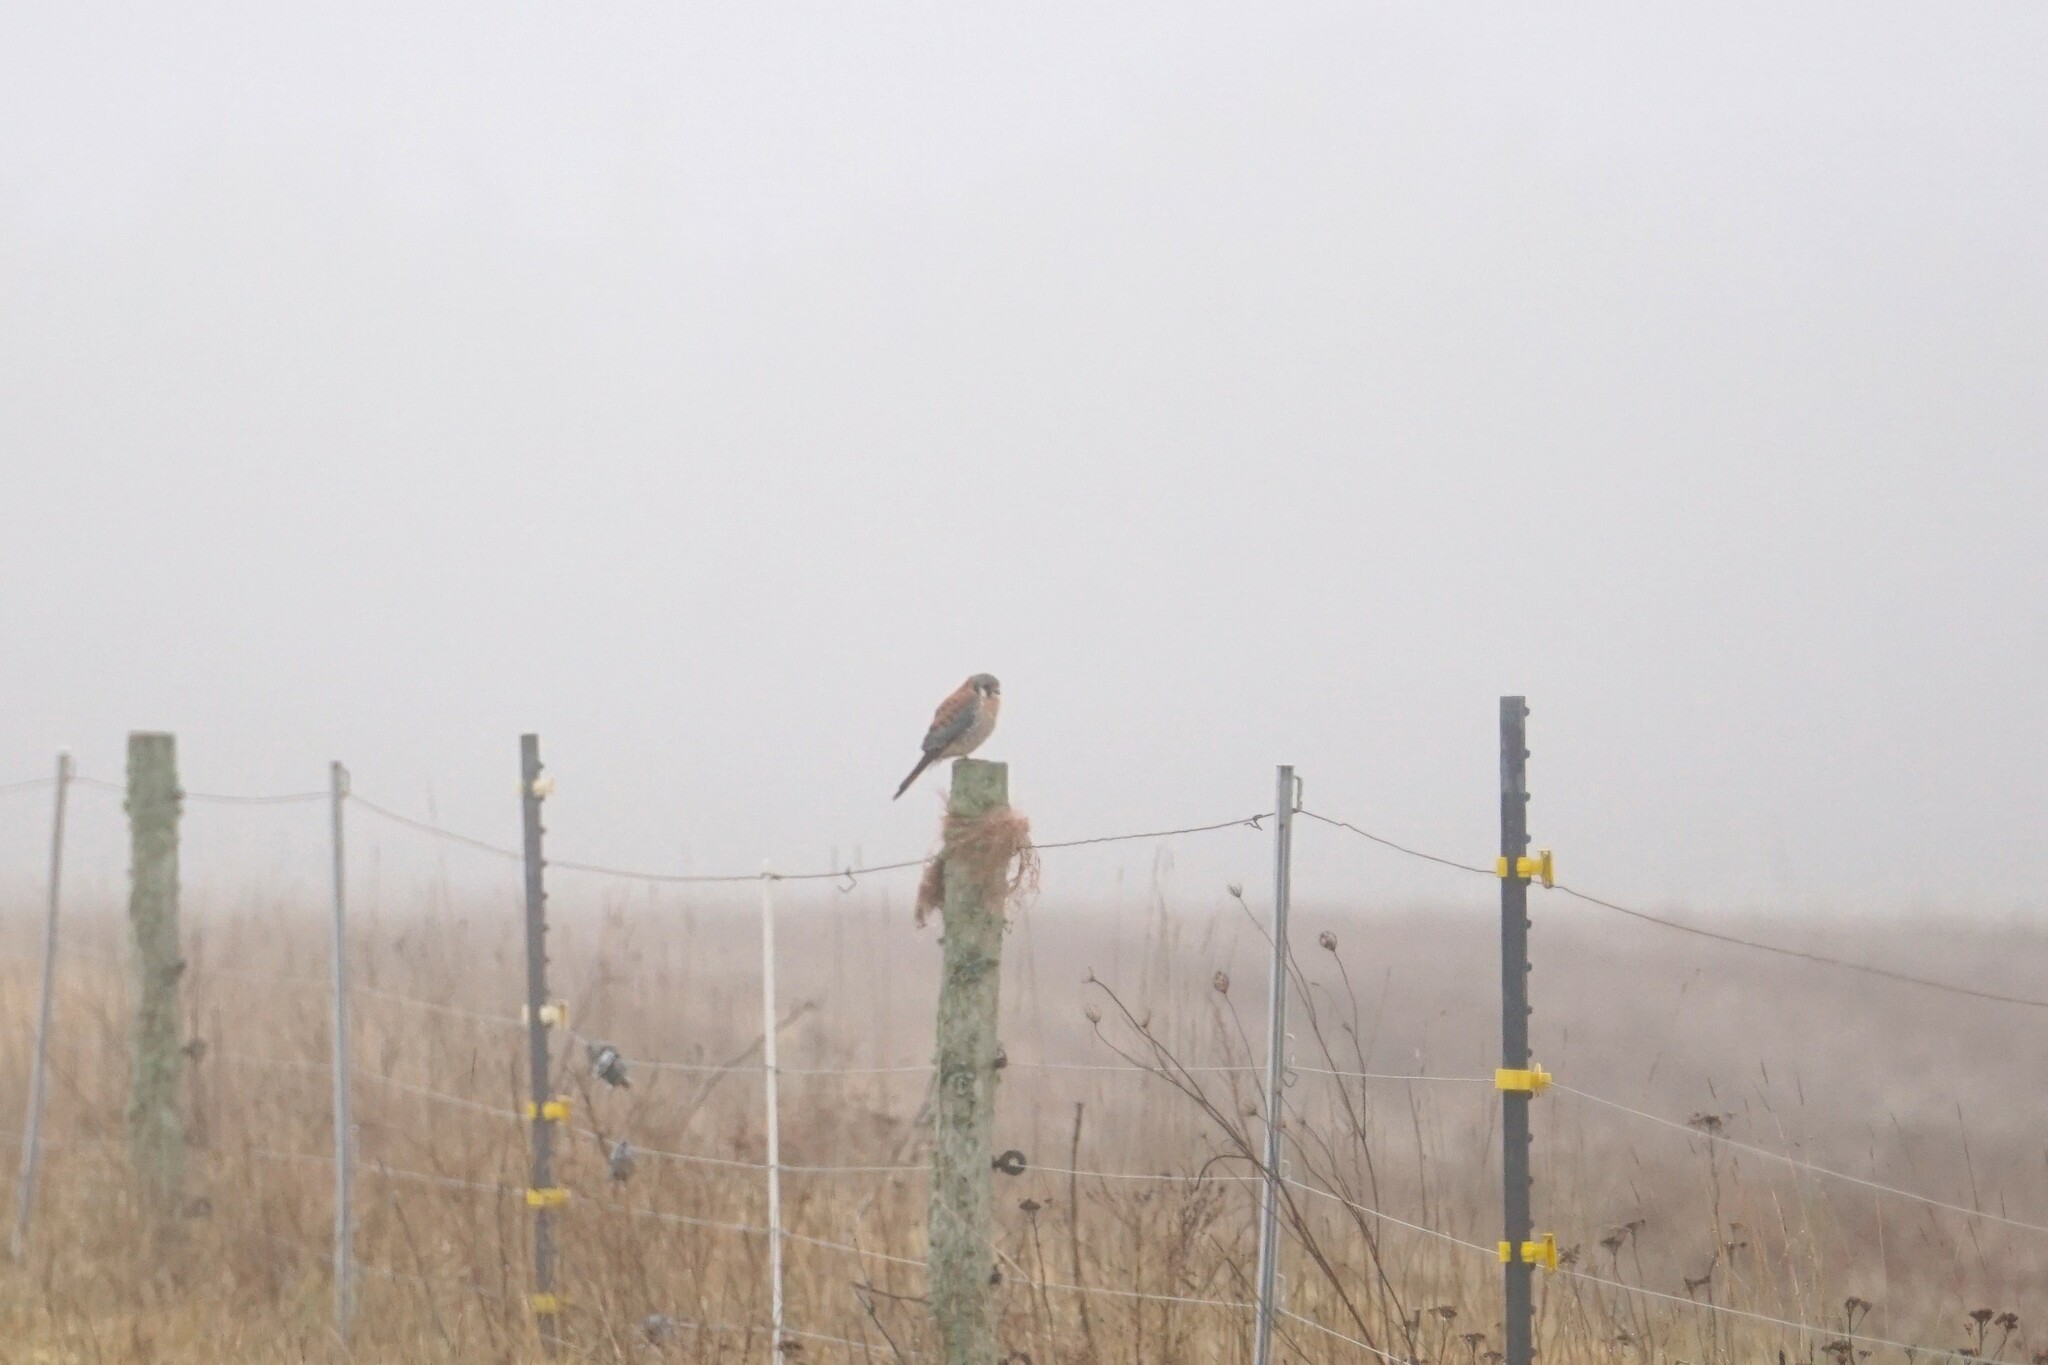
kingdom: Animalia
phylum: Chordata
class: Aves
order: Falconiformes
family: Falconidae
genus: Falco
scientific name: Falco sparverius
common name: American kestrel
